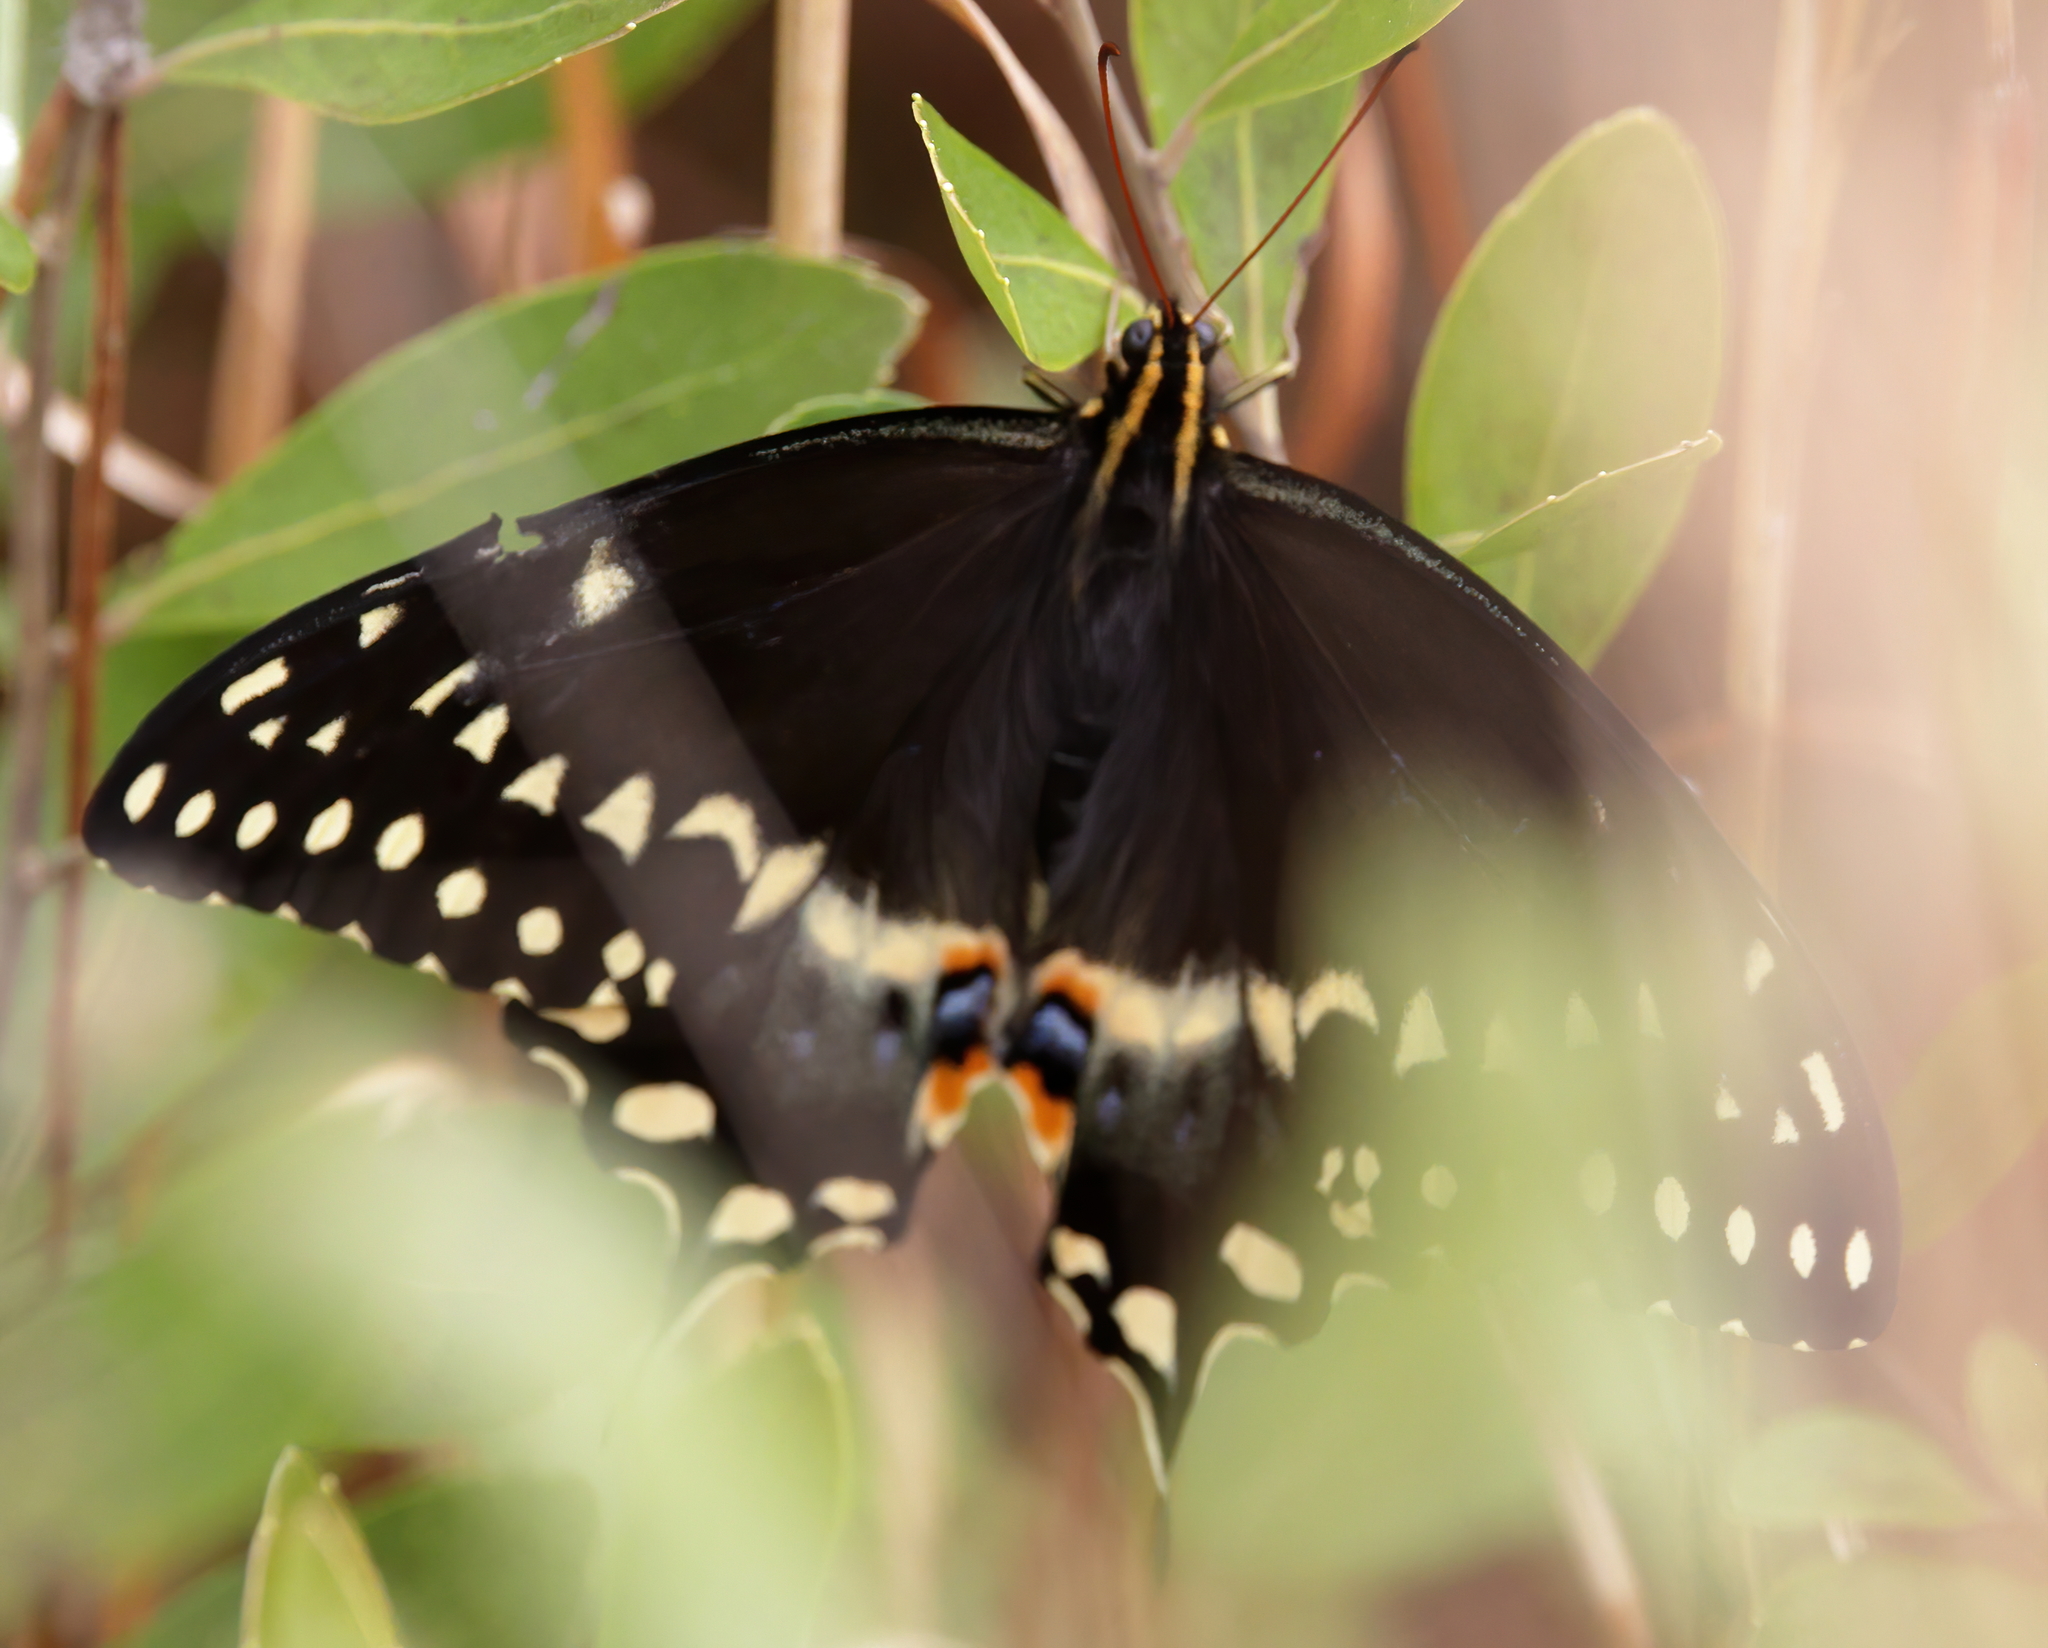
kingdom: Animalia
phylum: Arthropoda
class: Insecta
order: Lepidoptera
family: Papilionidae
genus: Papilio
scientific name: Papilio palamedes
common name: Palamedes swallowtail
